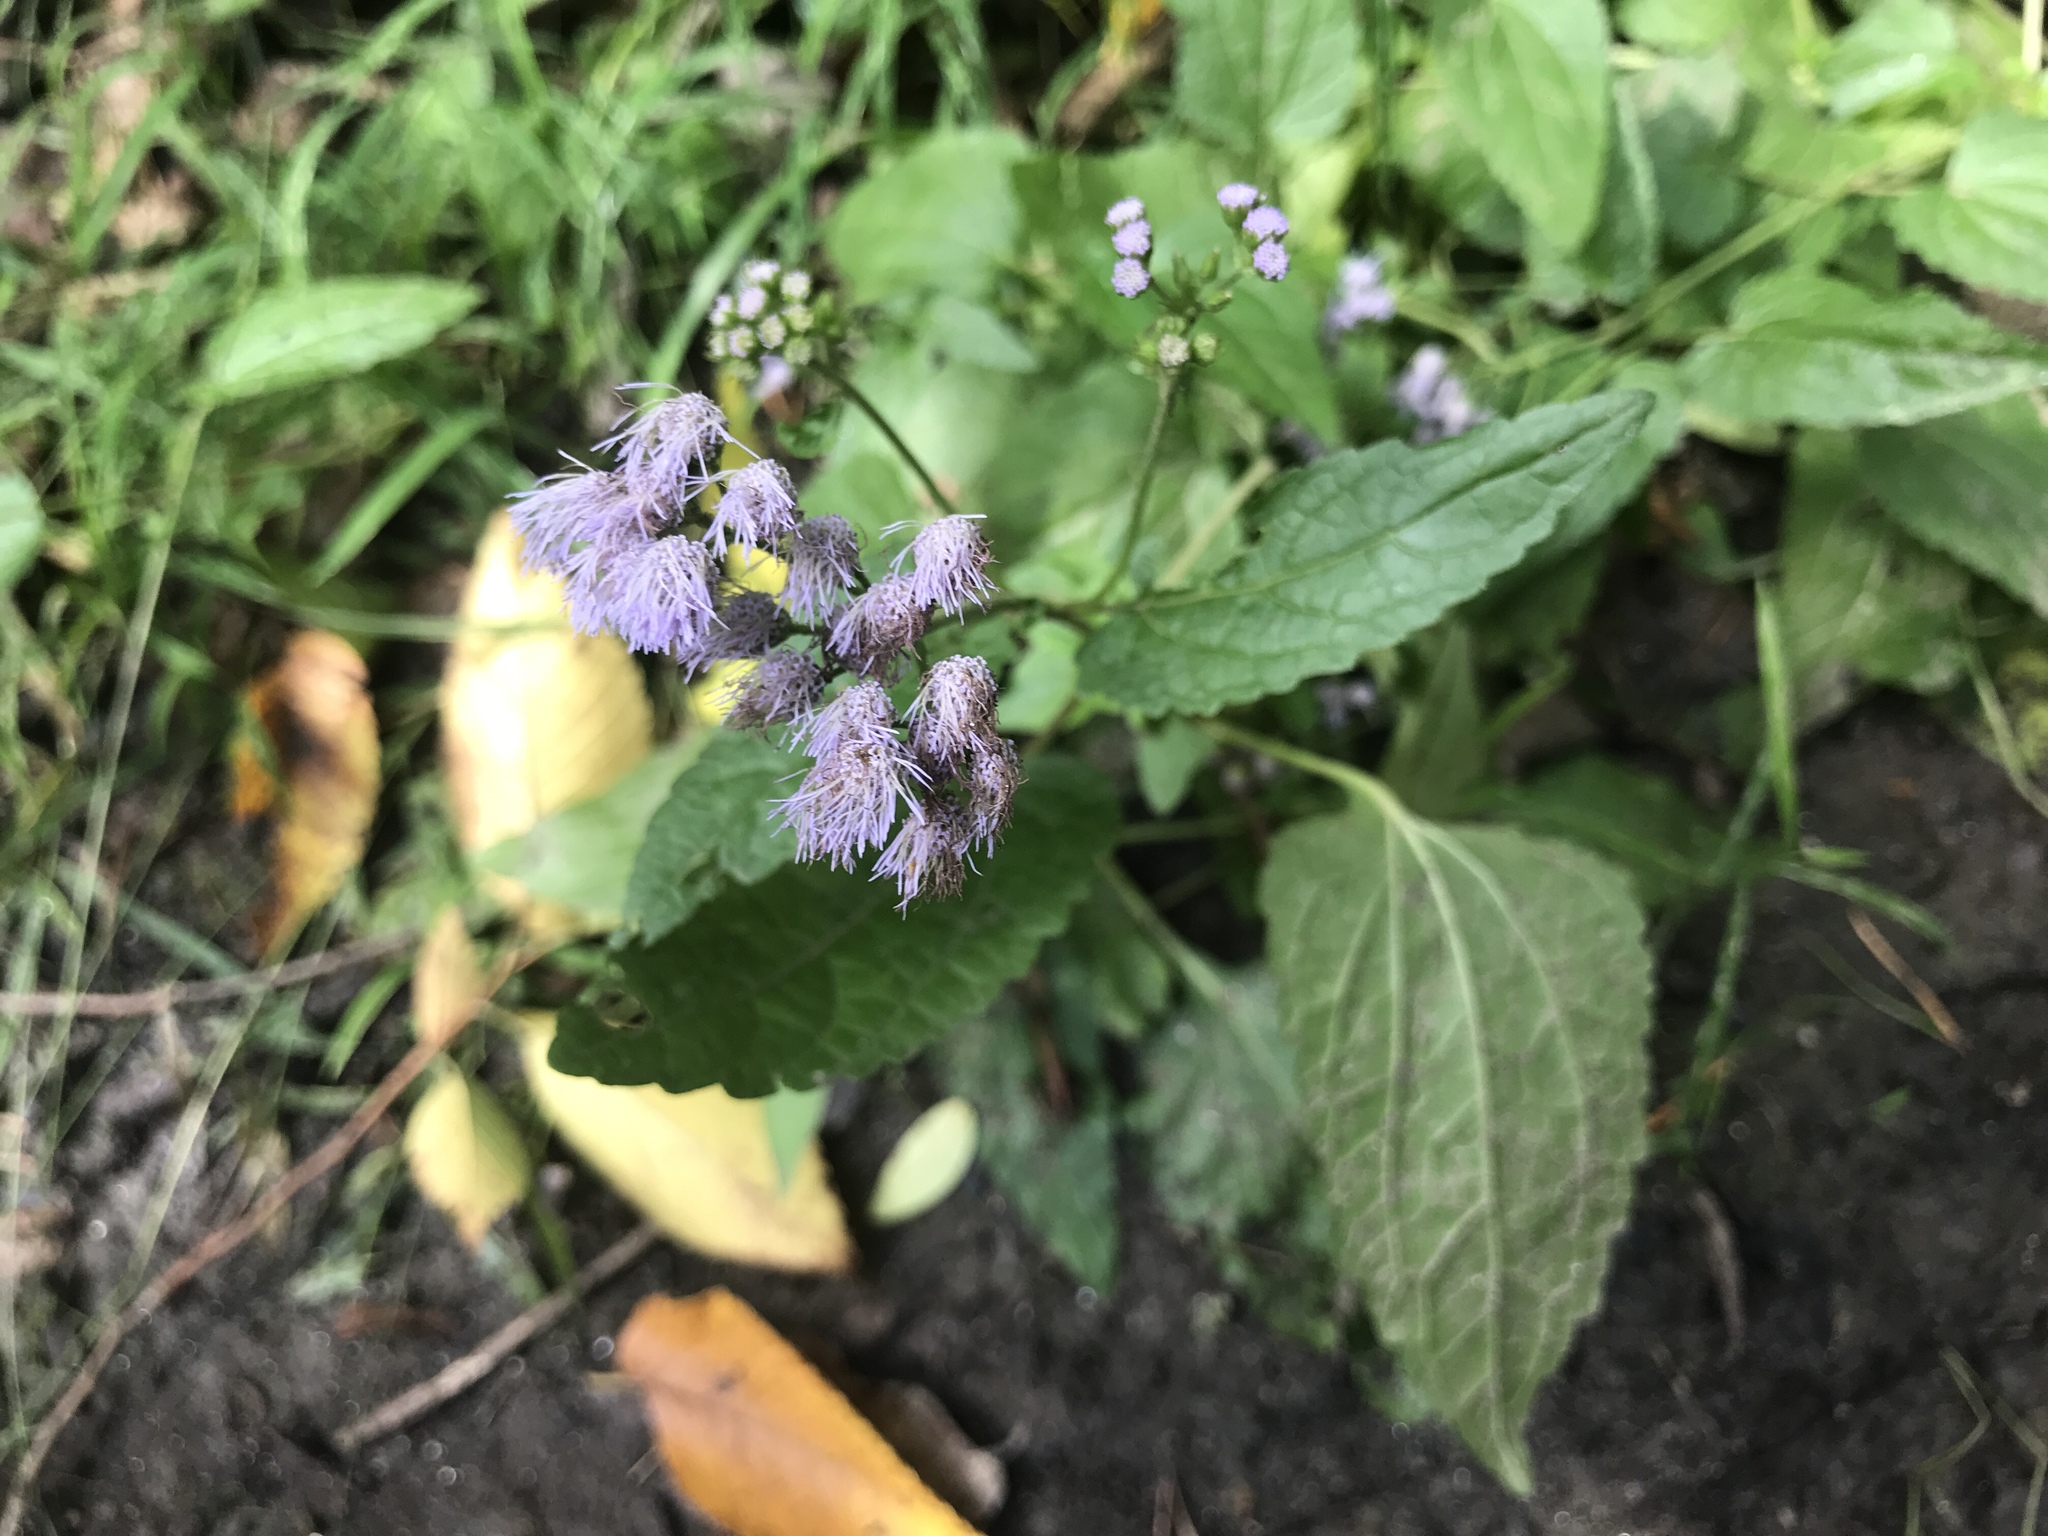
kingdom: Plantae
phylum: Tracheophyta
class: Magnoliopsida
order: Asterales
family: Asteraceae
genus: Conoclinium
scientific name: Conoclinium coelestinum
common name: Blue mistflower
